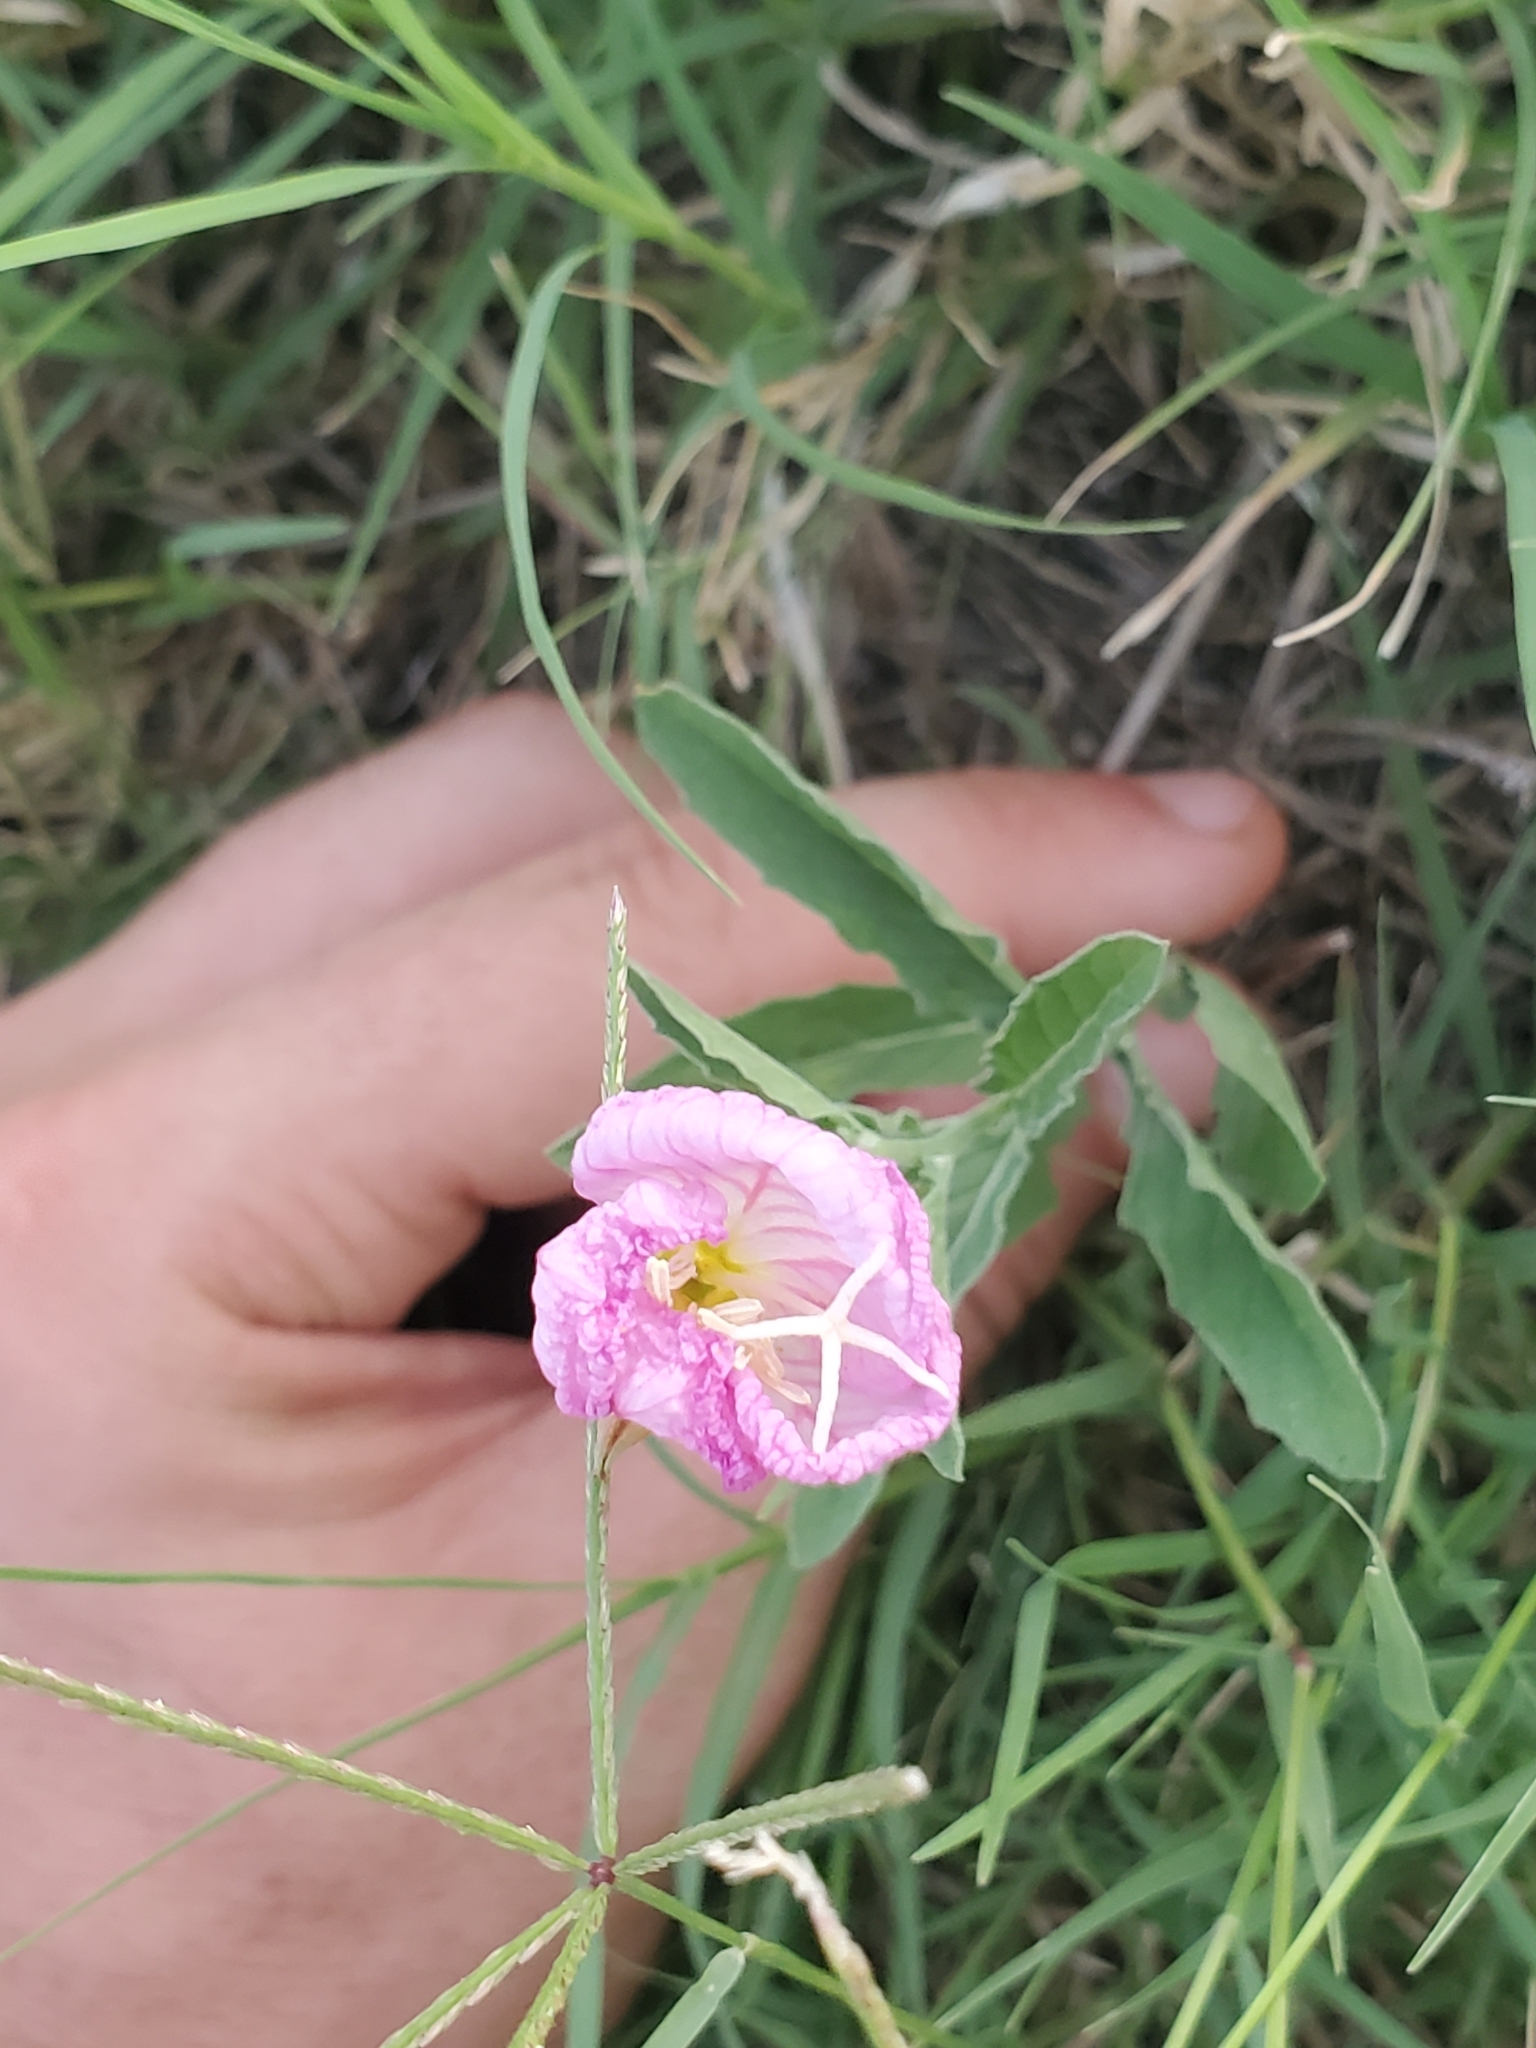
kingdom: Plantae
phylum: Tracheophyta
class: Magnoliopsida
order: Myrtales
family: Onagraceae
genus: Oenothera
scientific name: Oenothera speciosa
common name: White evening-primrose
